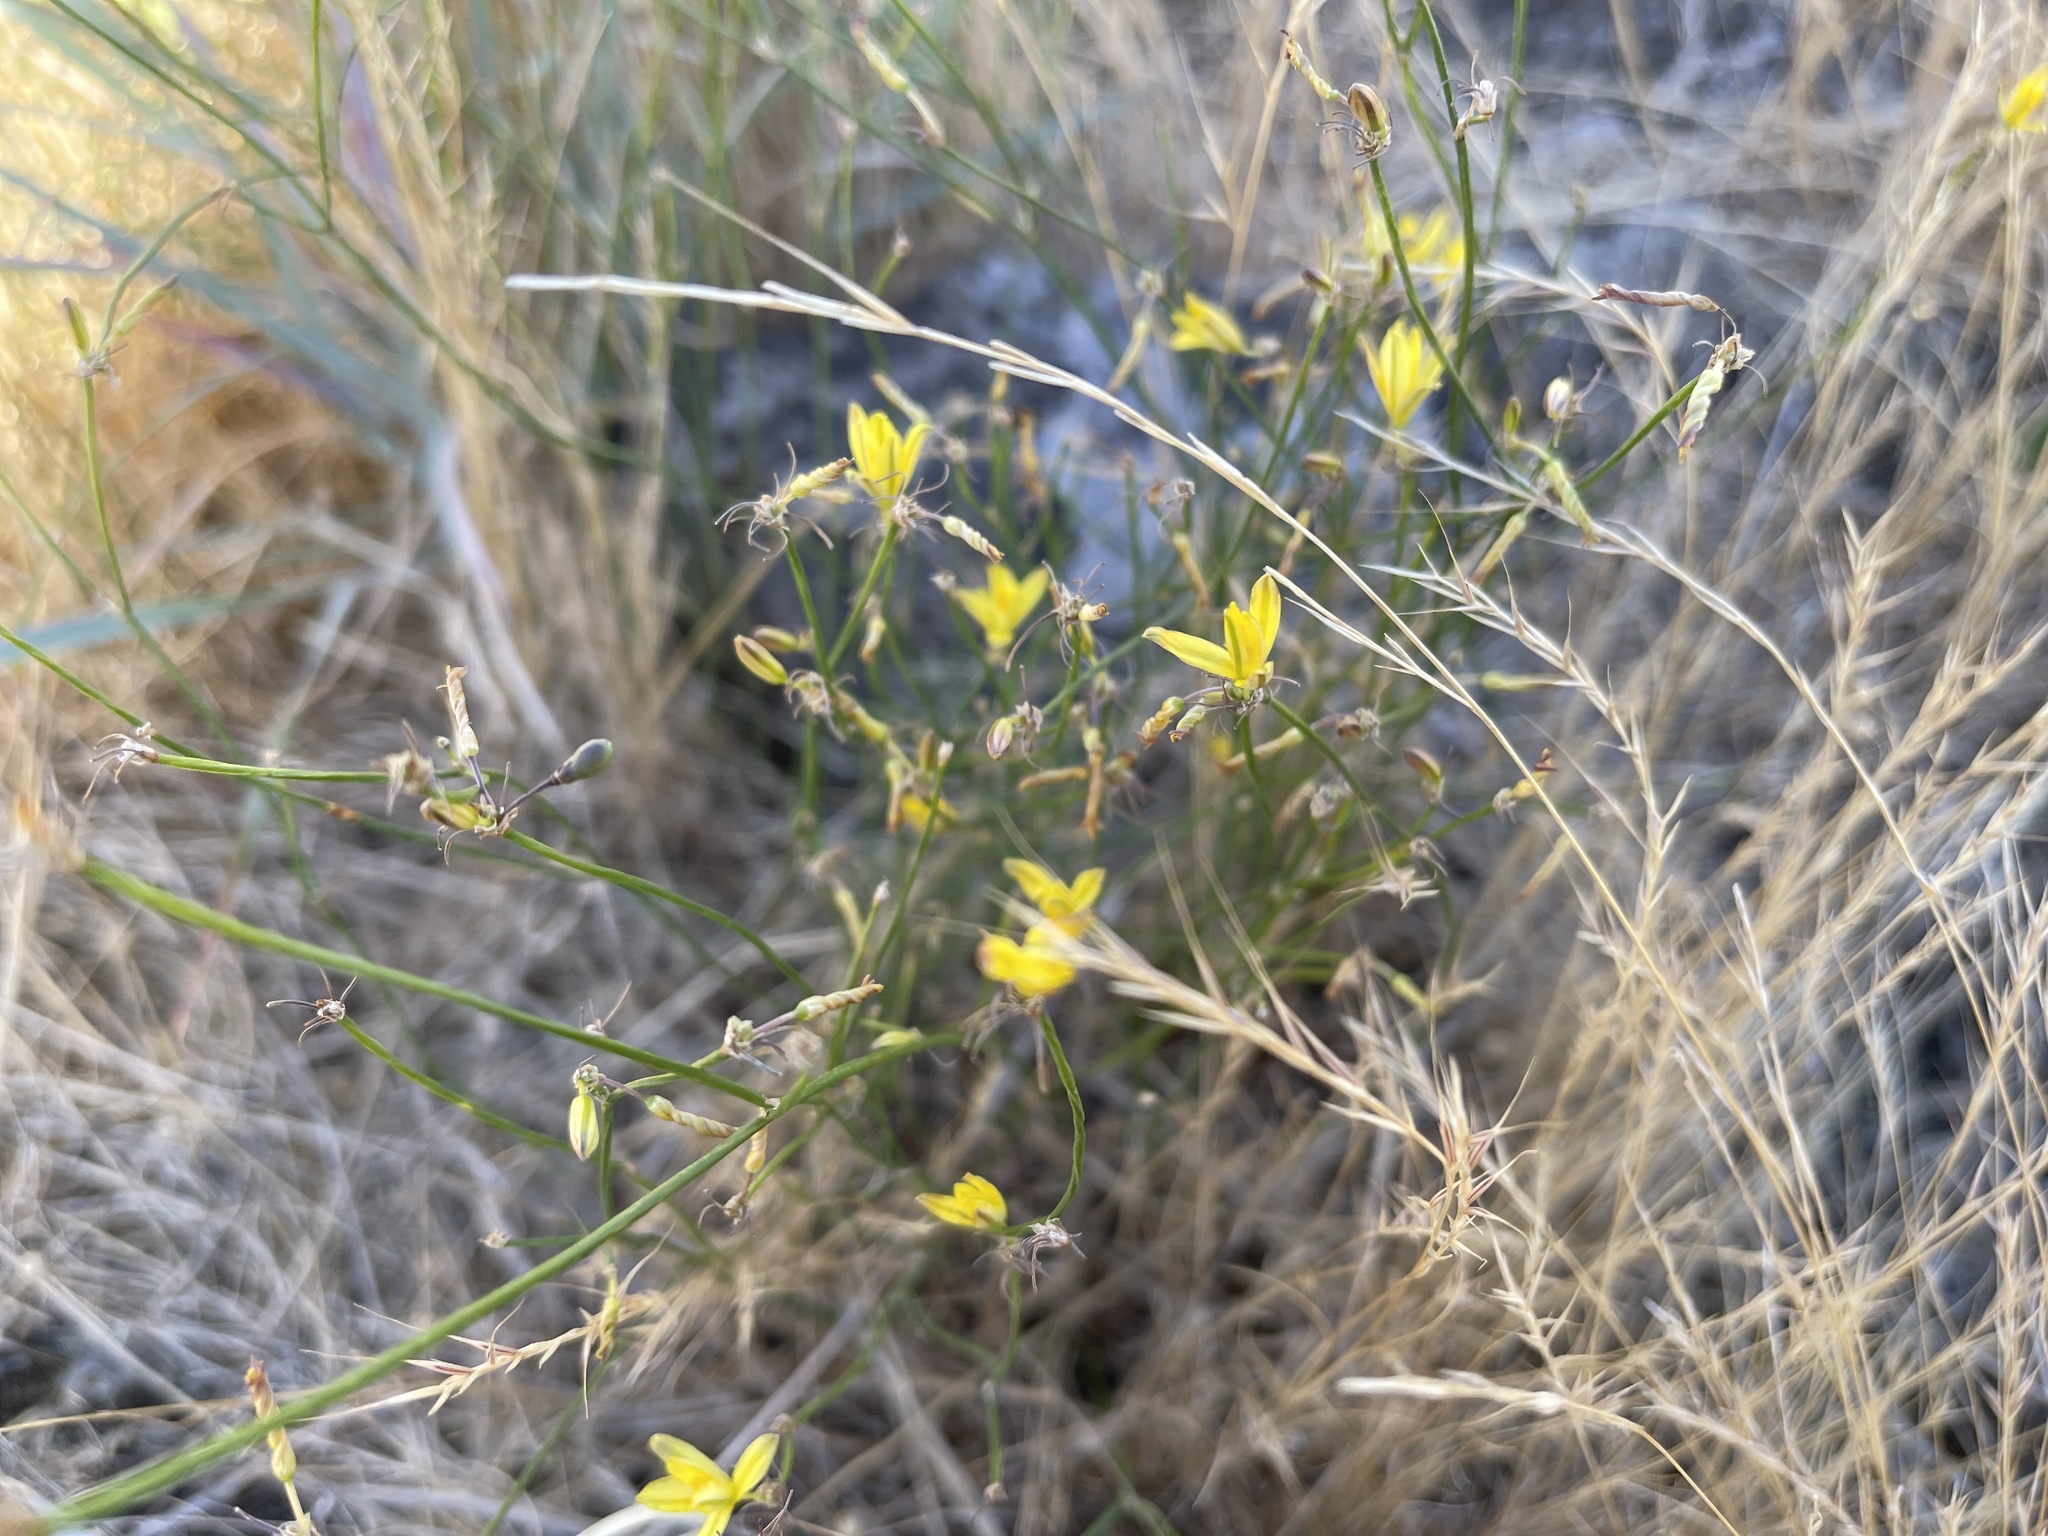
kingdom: Plantae
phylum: Tracheophyta
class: Liliopsida
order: Asparagales
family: Asphodelaceae
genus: Tricoryne
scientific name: Tricoryne elatior
